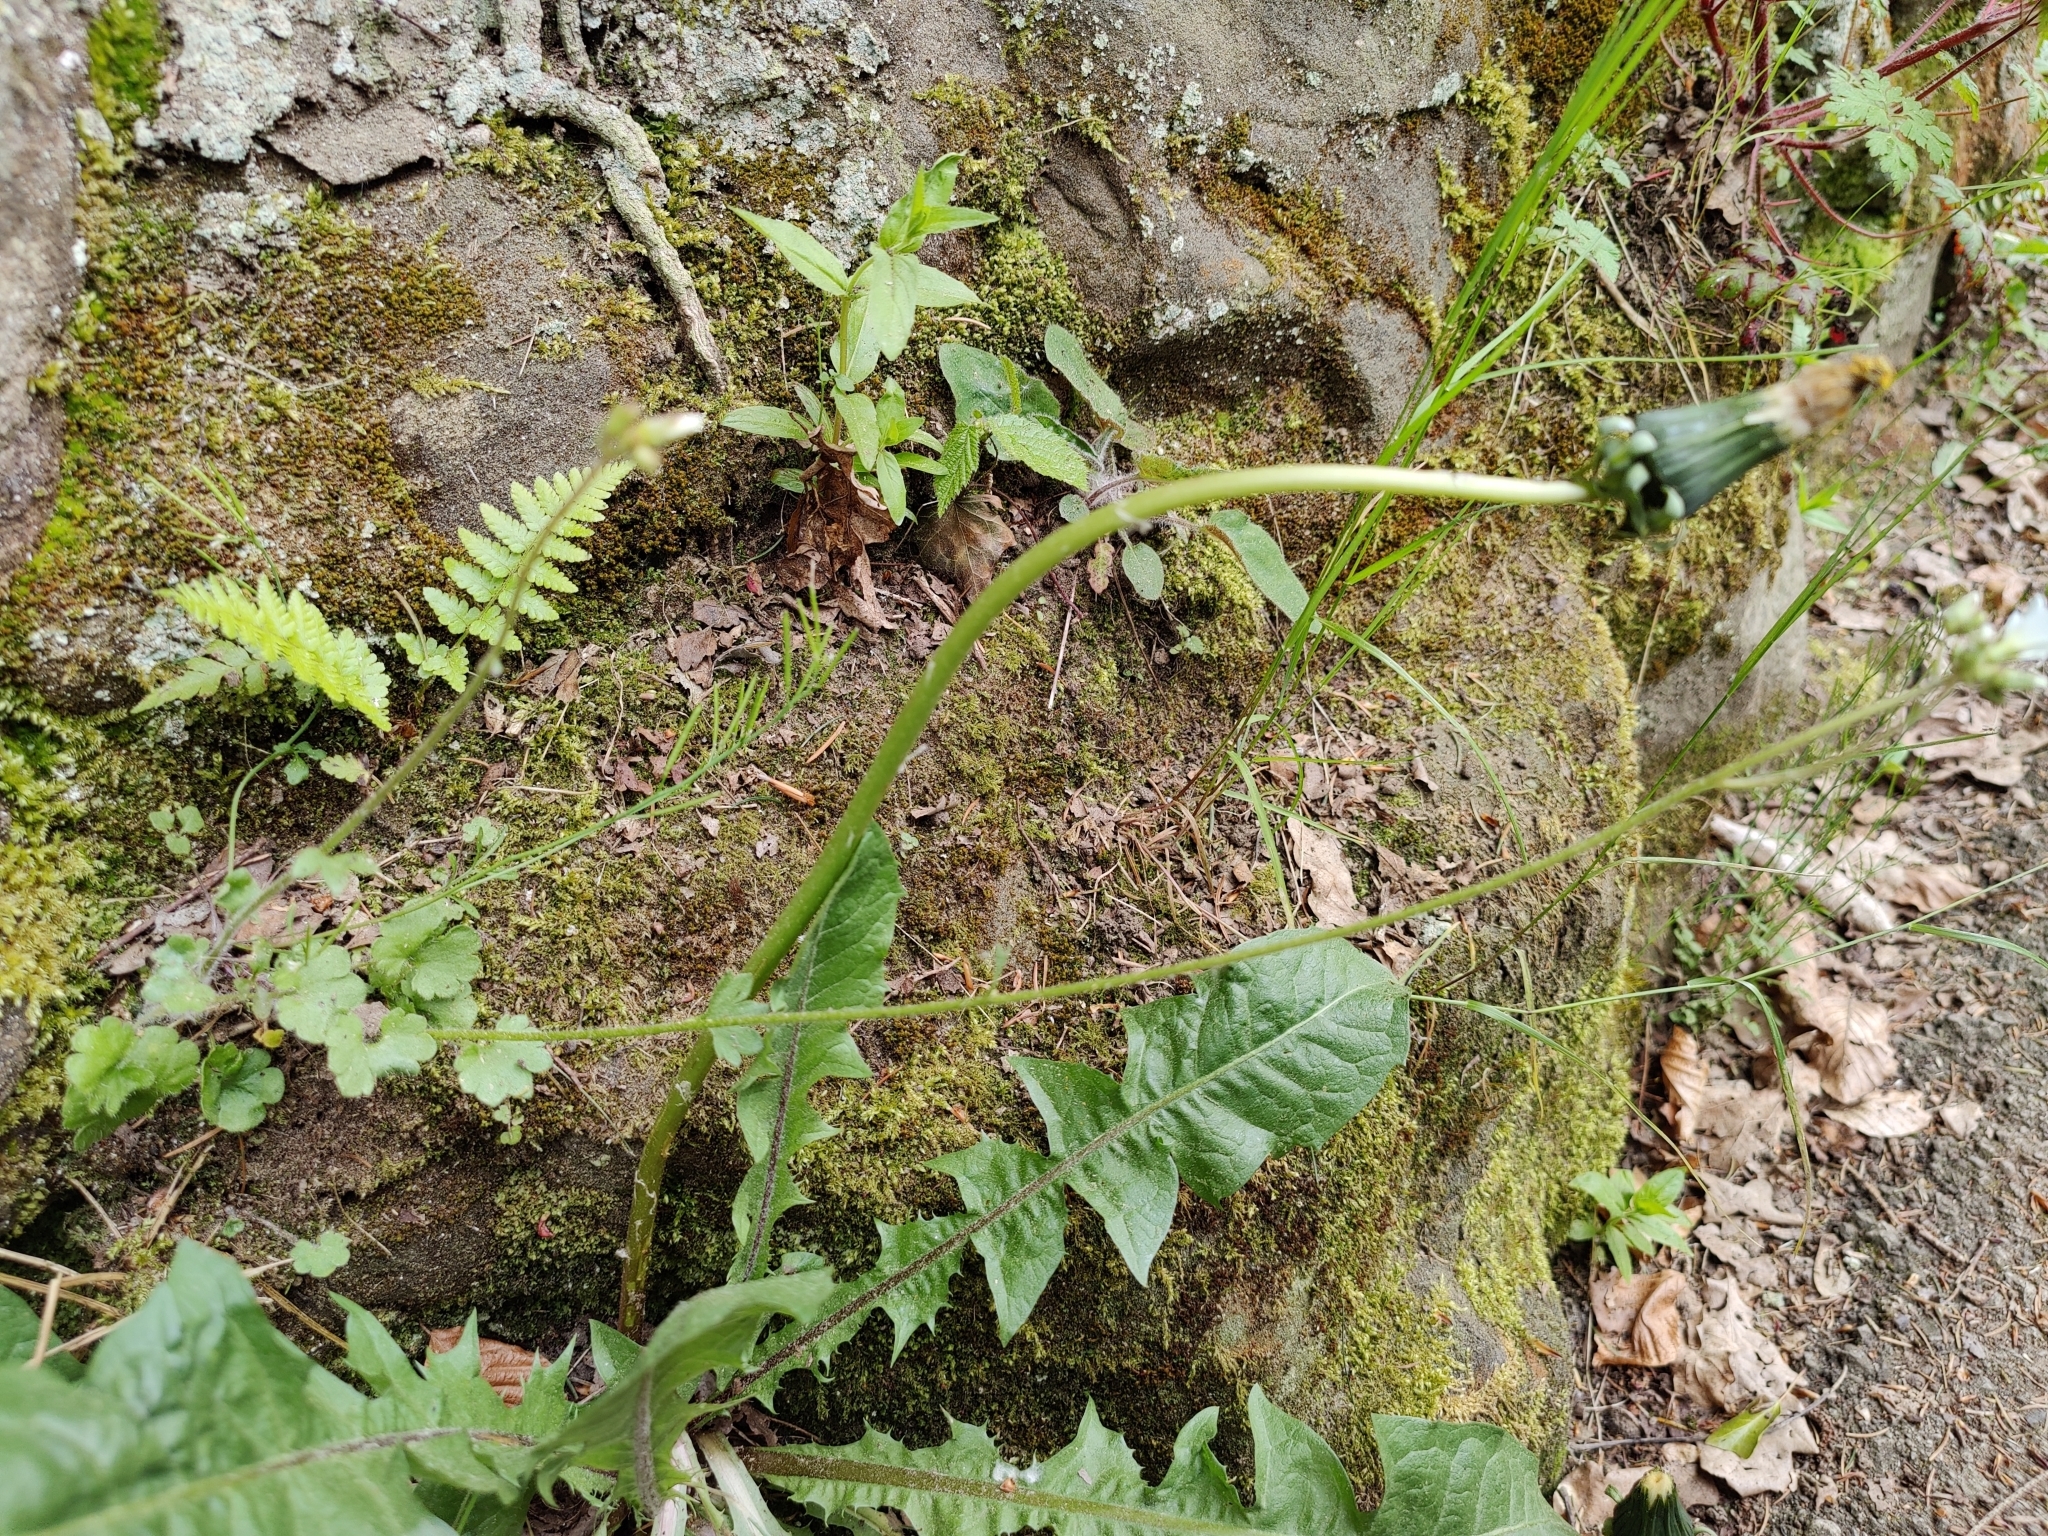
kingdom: Plantae
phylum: Tracheophyta
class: Magnoliopsida
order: Saxifragales
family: Saxifragaceae
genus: Saxifraga
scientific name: Saxifraga granulata
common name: Meadow saxifrage
